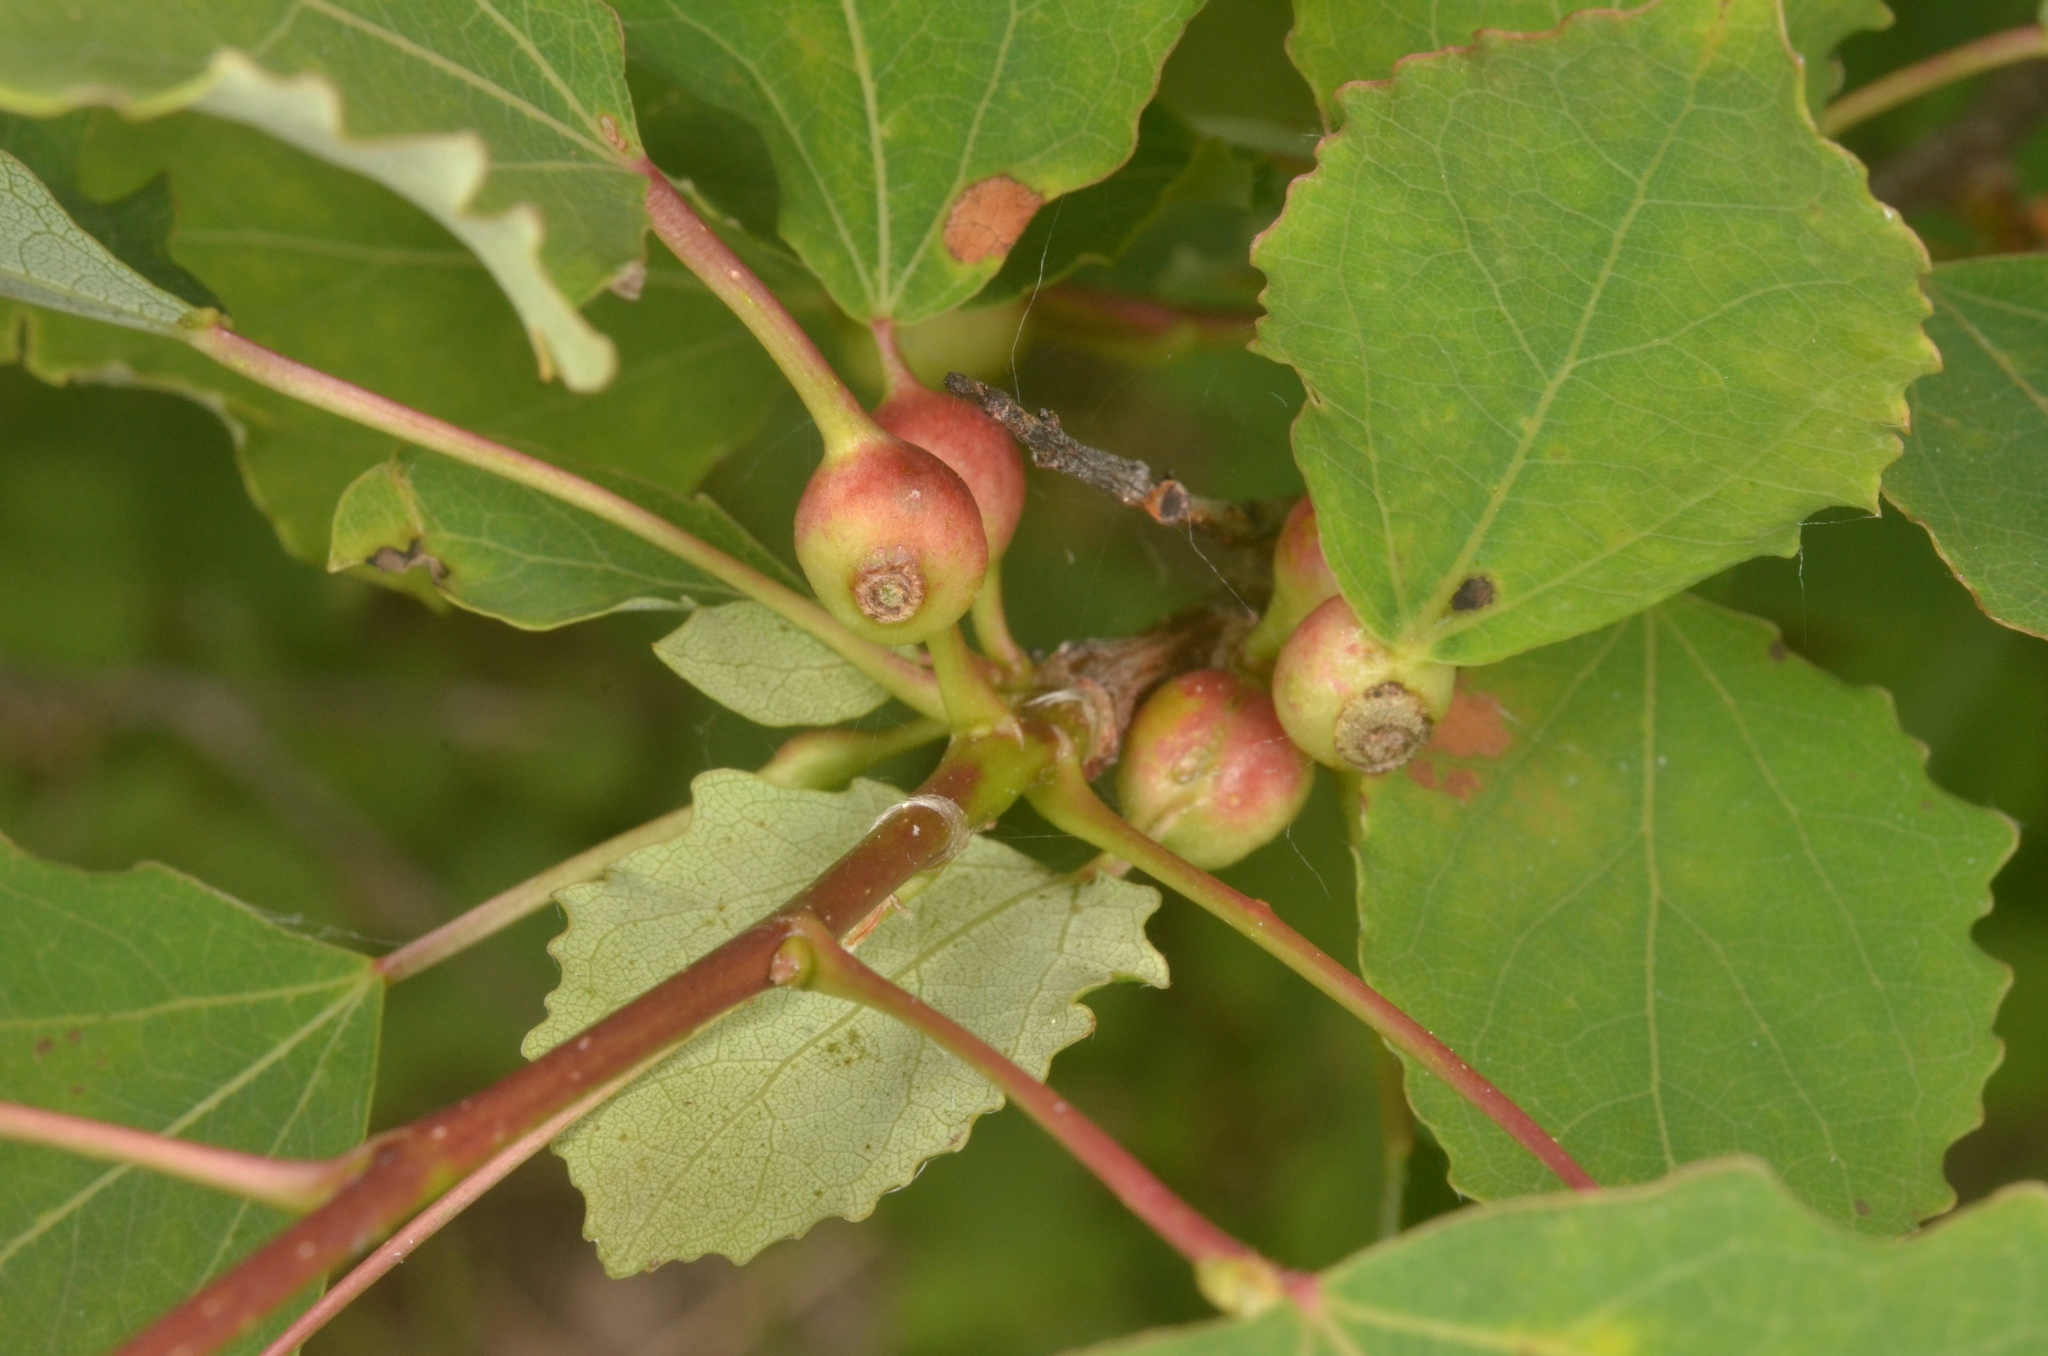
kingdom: Animalia
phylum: Arthropoda
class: Insecta
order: Diptera
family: Cecidomyiidae
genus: Contarinia
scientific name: Contarinia petioli
